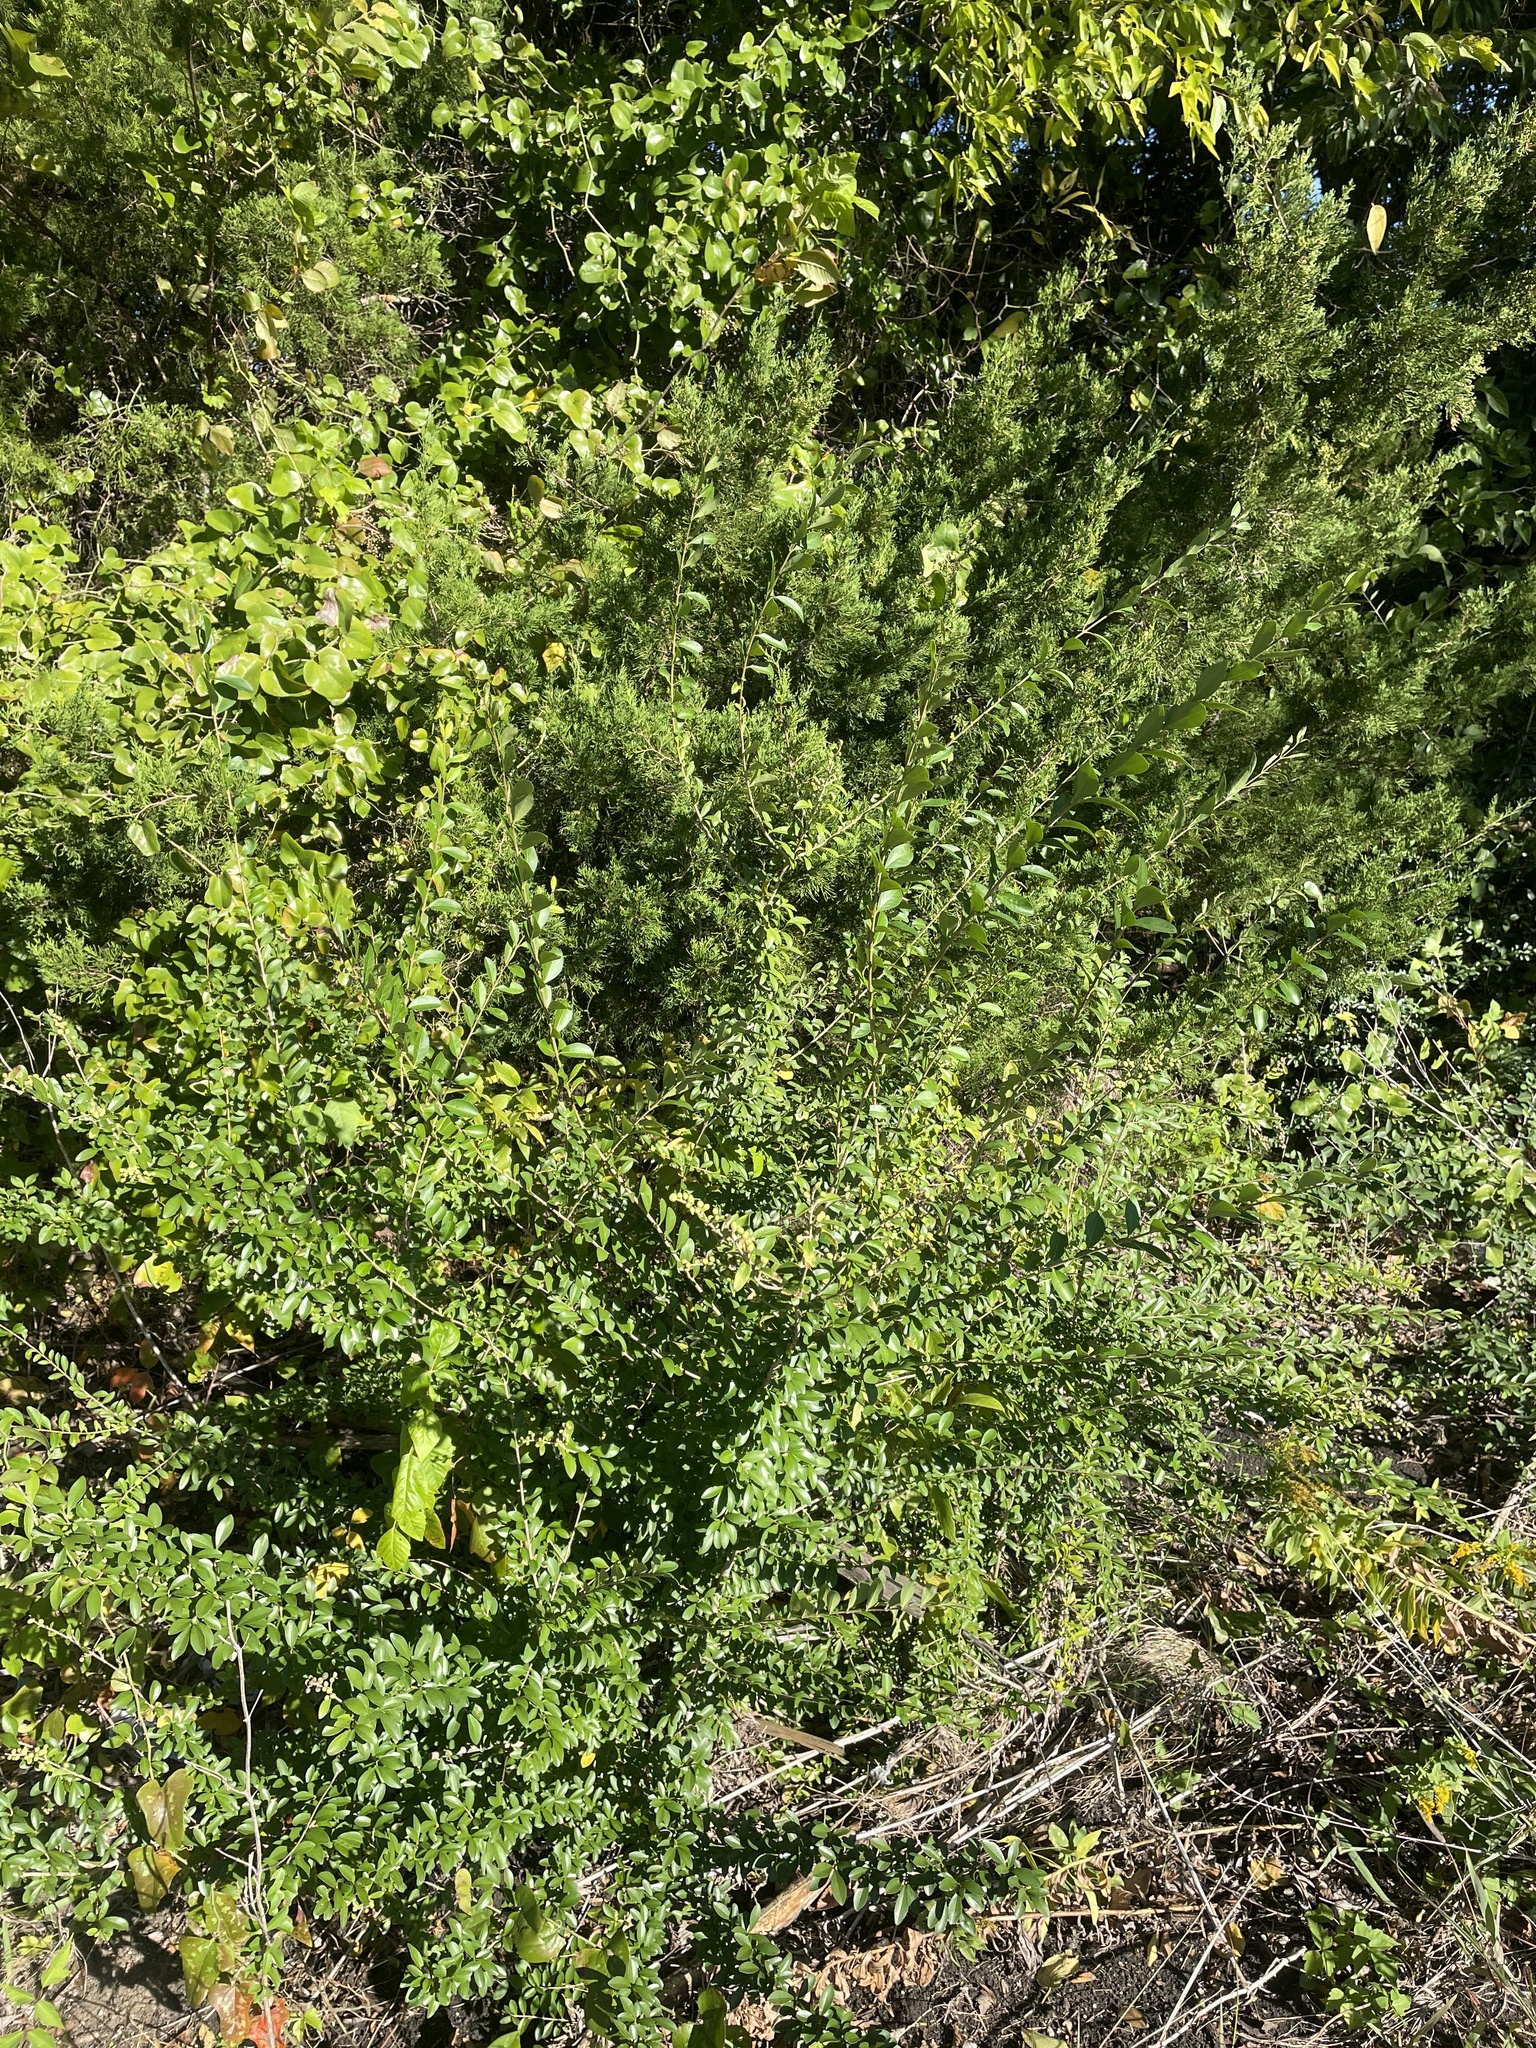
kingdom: Plantae
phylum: Tracheophyta
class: Magnoliopsida
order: Lamiales
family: Oleaceae
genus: Ligustrum
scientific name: Ligustrum quihoui
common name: Waxyleaf privet
